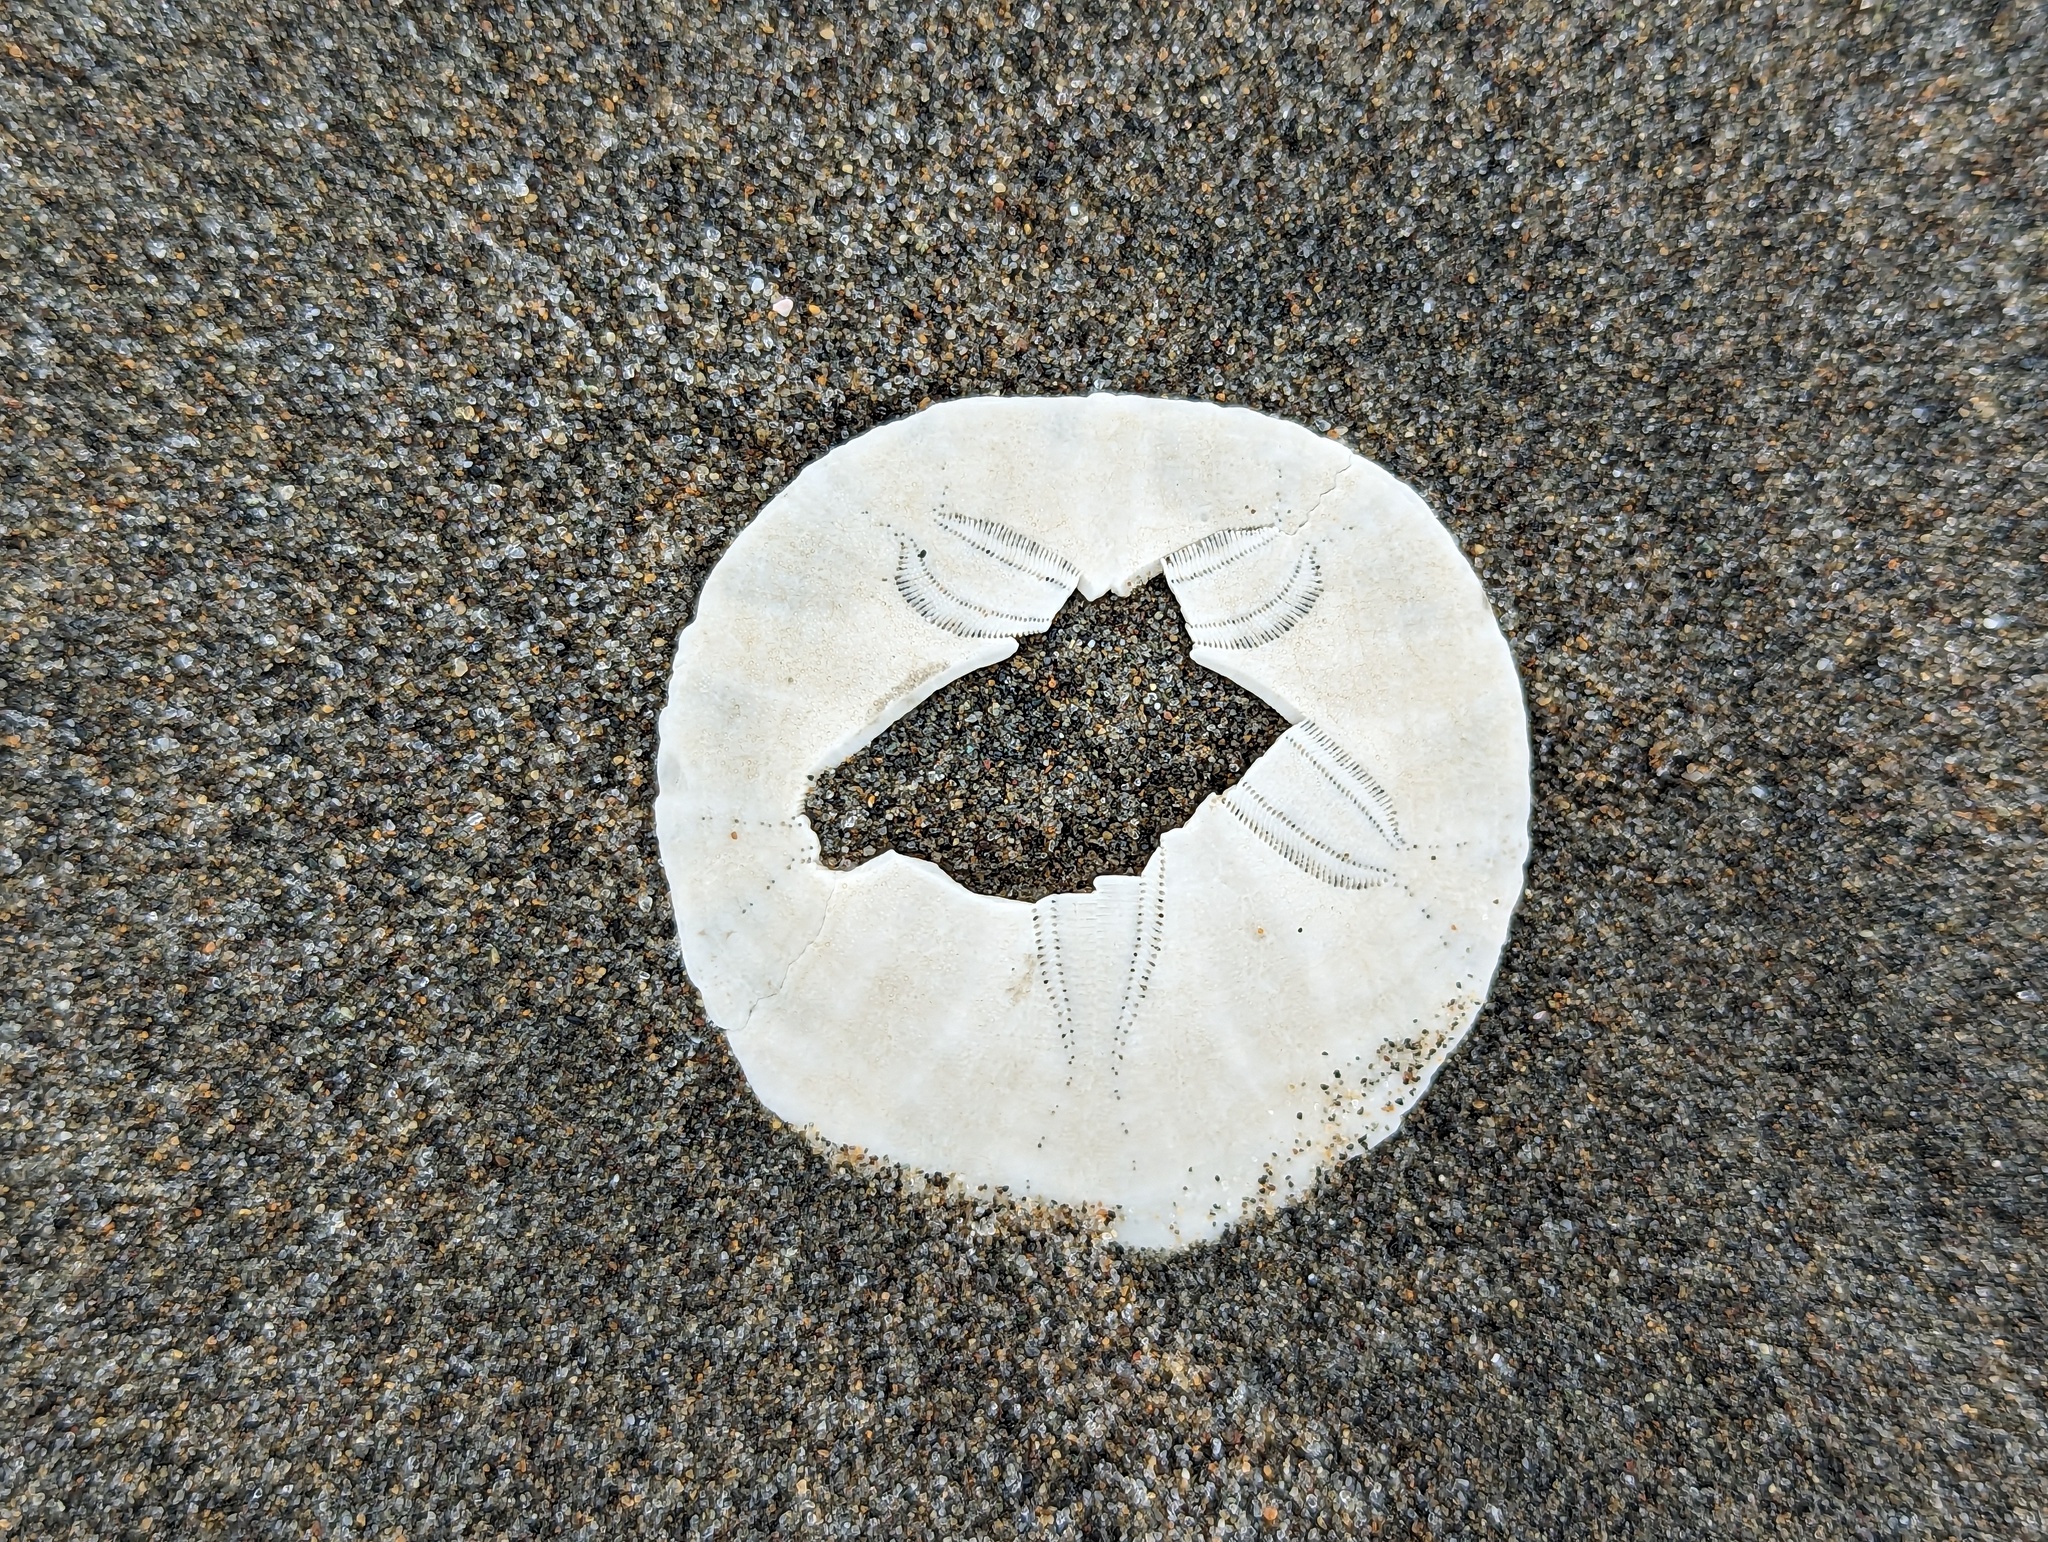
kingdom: Animalia
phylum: Echinodermata
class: Echinoidea
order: Echinolampadacea
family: Dendrasteridae
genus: Dendraster
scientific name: Dendraster excentricus
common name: Eccentric sand dollar sea urchin
